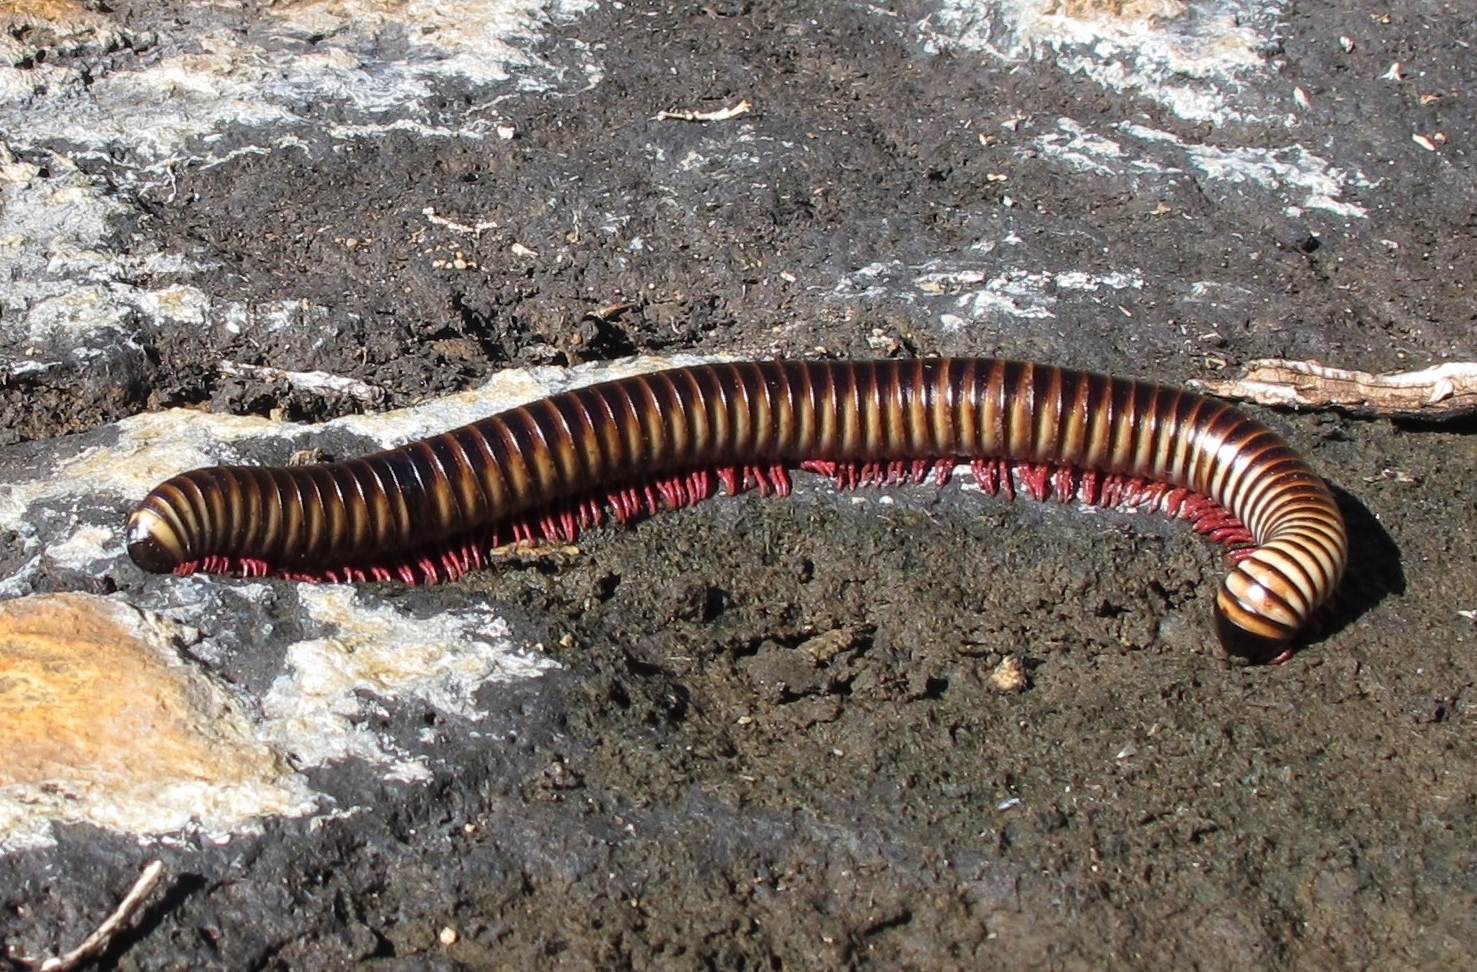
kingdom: Animalia
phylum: Arthropoda
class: Diplopoda
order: Spirostreptida
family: Spirostreptidae
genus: Doratogonus
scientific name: Doratogonus flavifilis
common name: Yellow-banded black millipede
